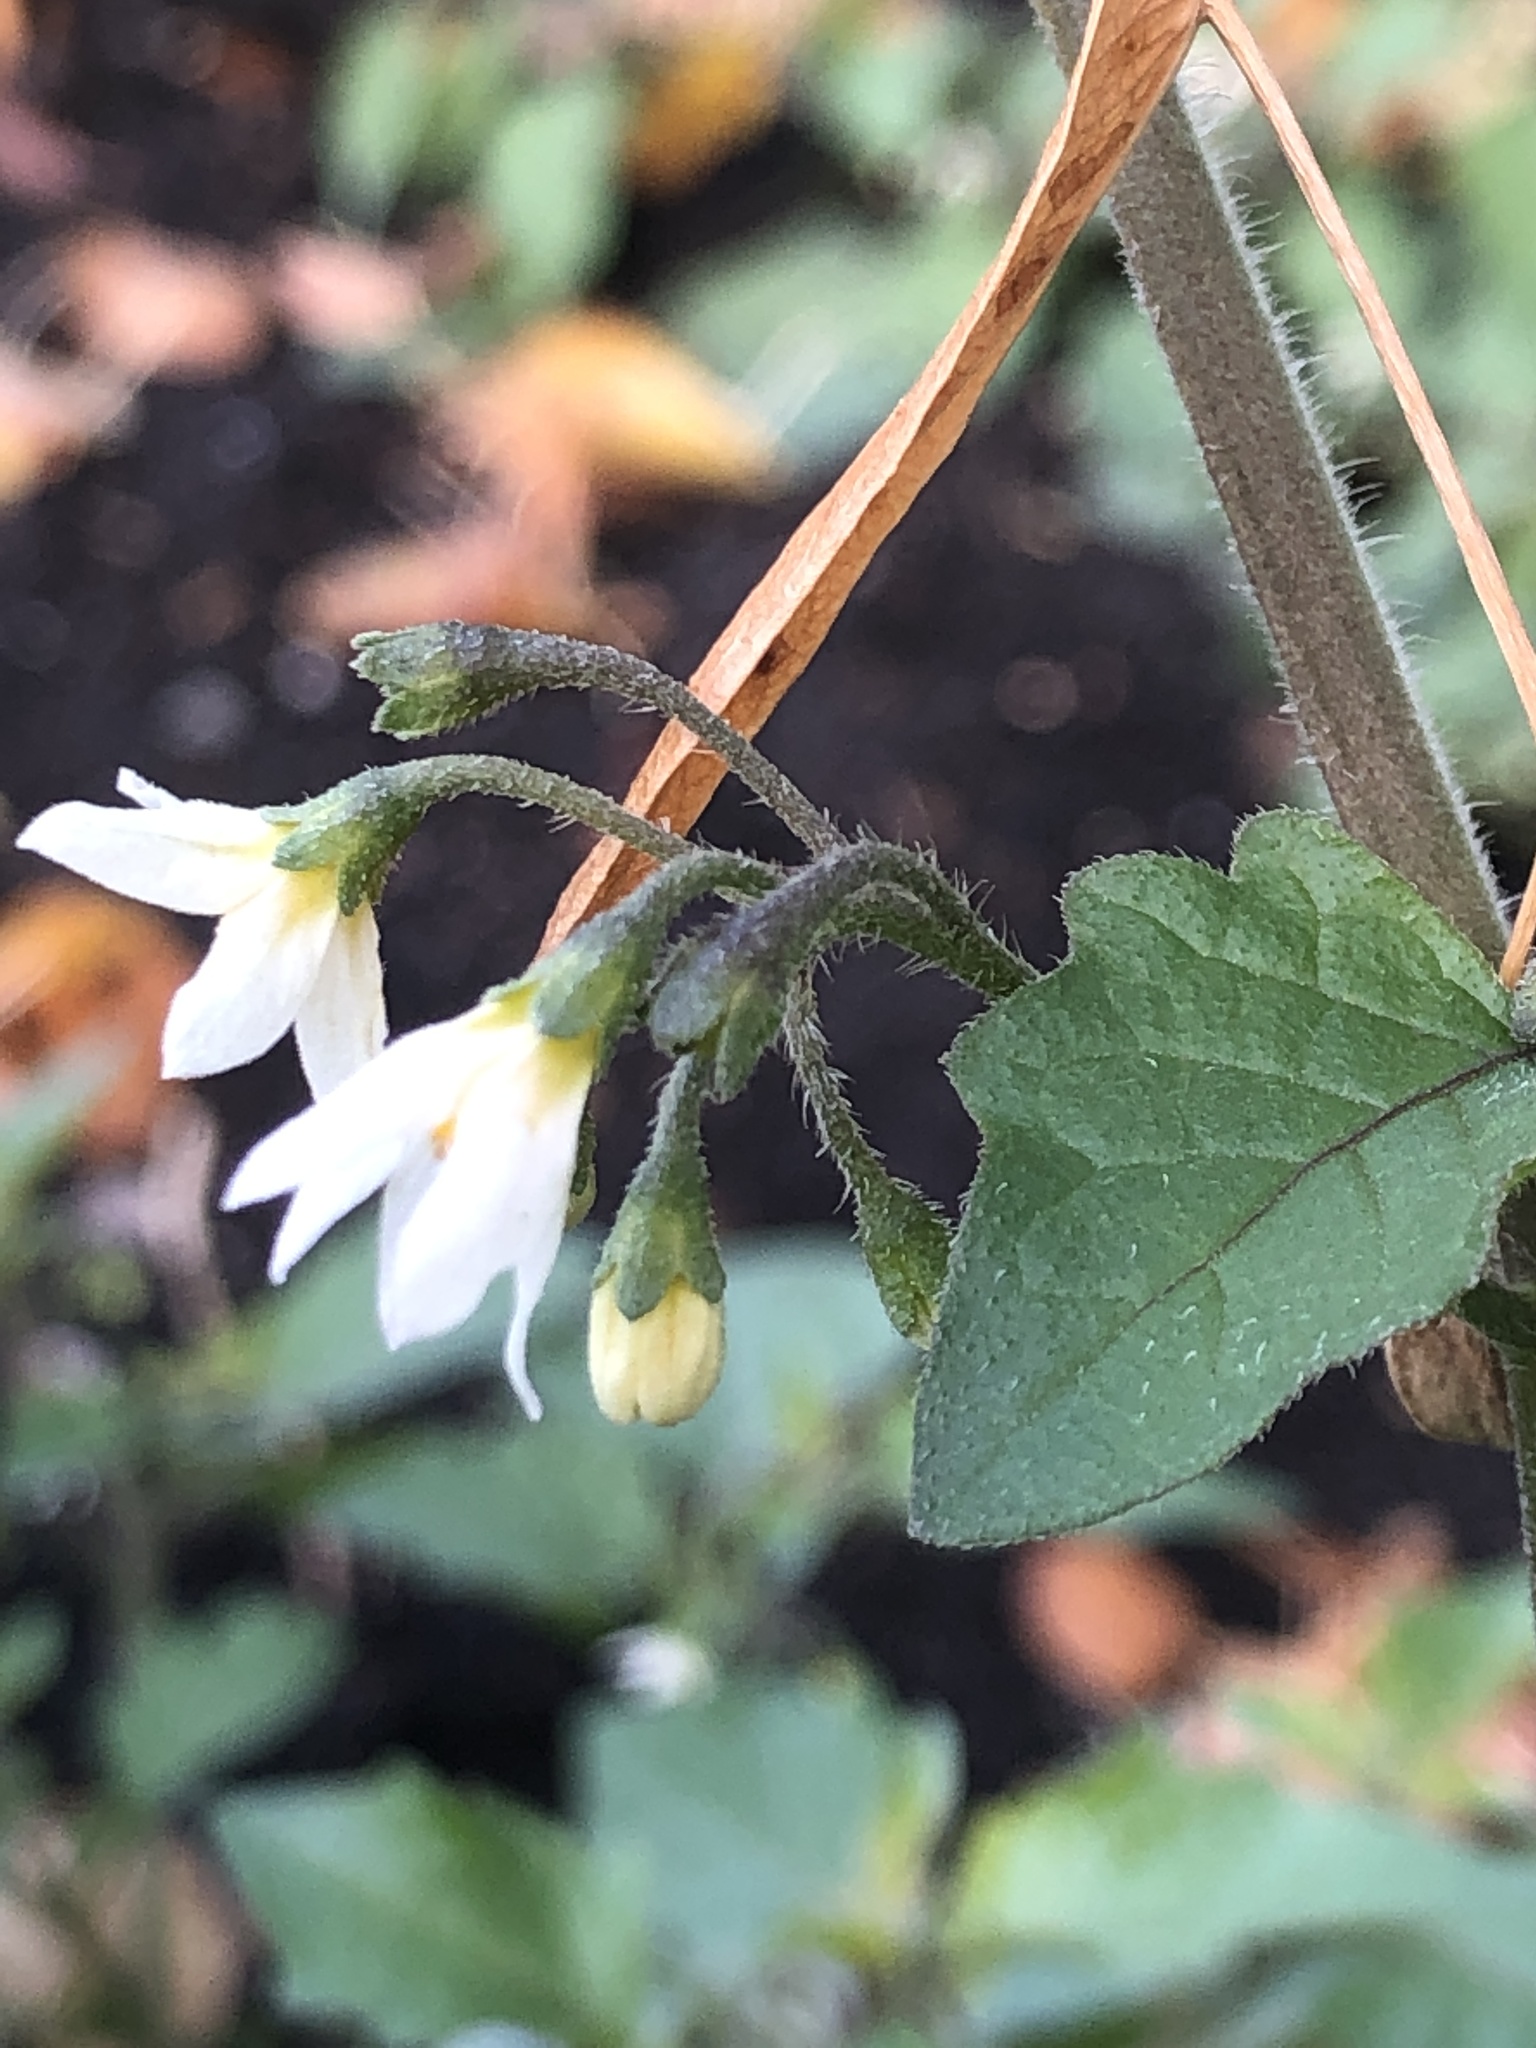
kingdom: Plantae
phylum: Tracheophyta
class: Magnoliopsida
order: Solanales
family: Solanaceae
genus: Solanum
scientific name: Solanum nigrum
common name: Black nightshade
